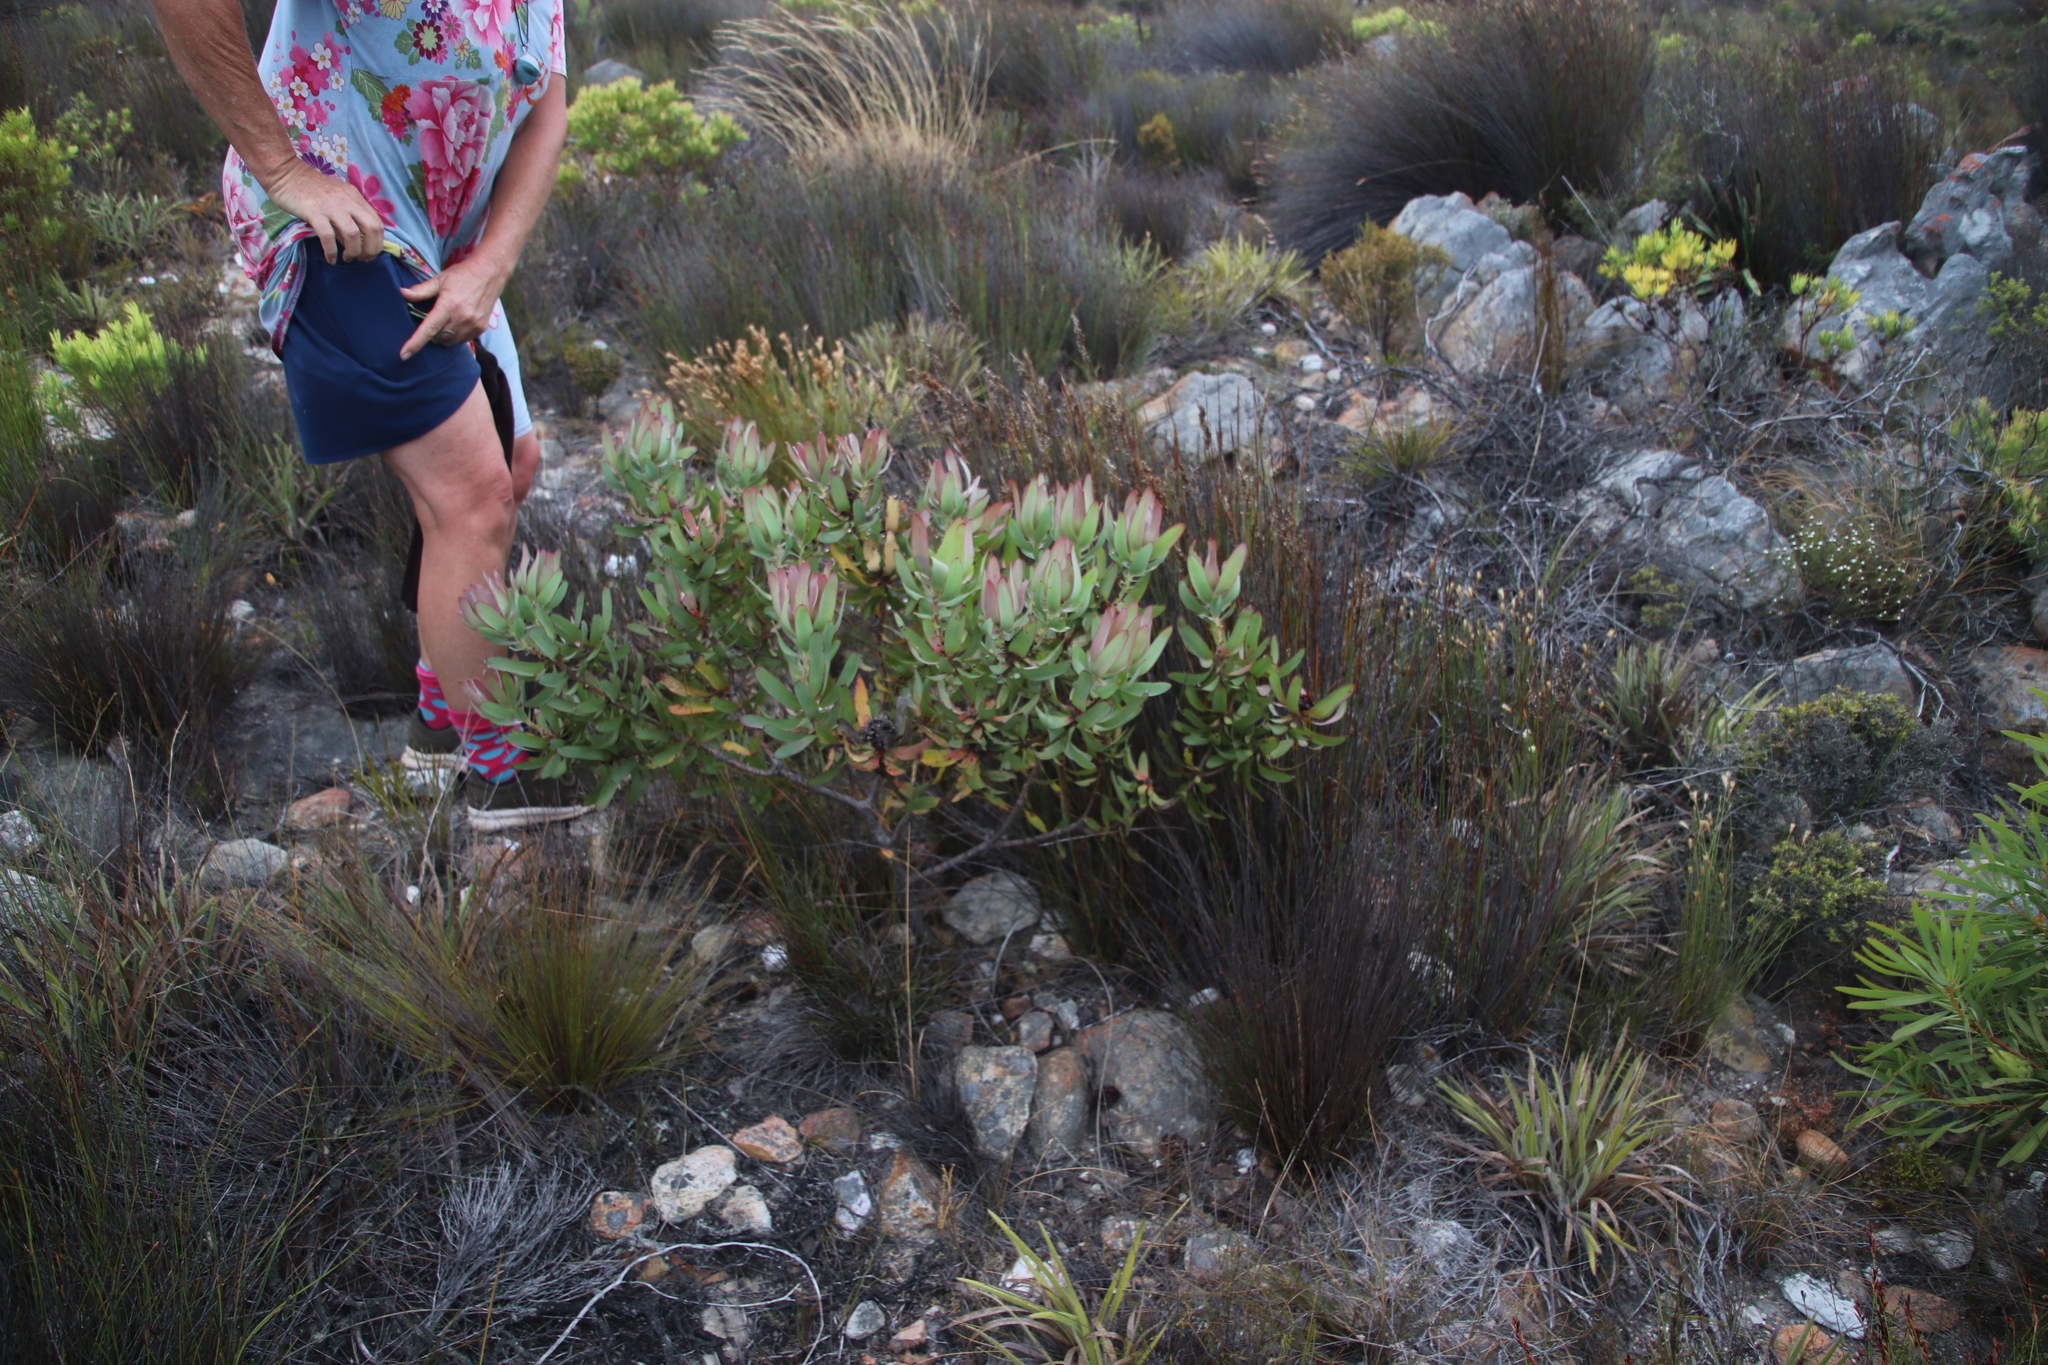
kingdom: Plantae
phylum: Tracheophyta
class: Magnoliopsida
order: Proteales
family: Proteaceae
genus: Leucadendron
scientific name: Leucadendron tinctum
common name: Spicy conebush
